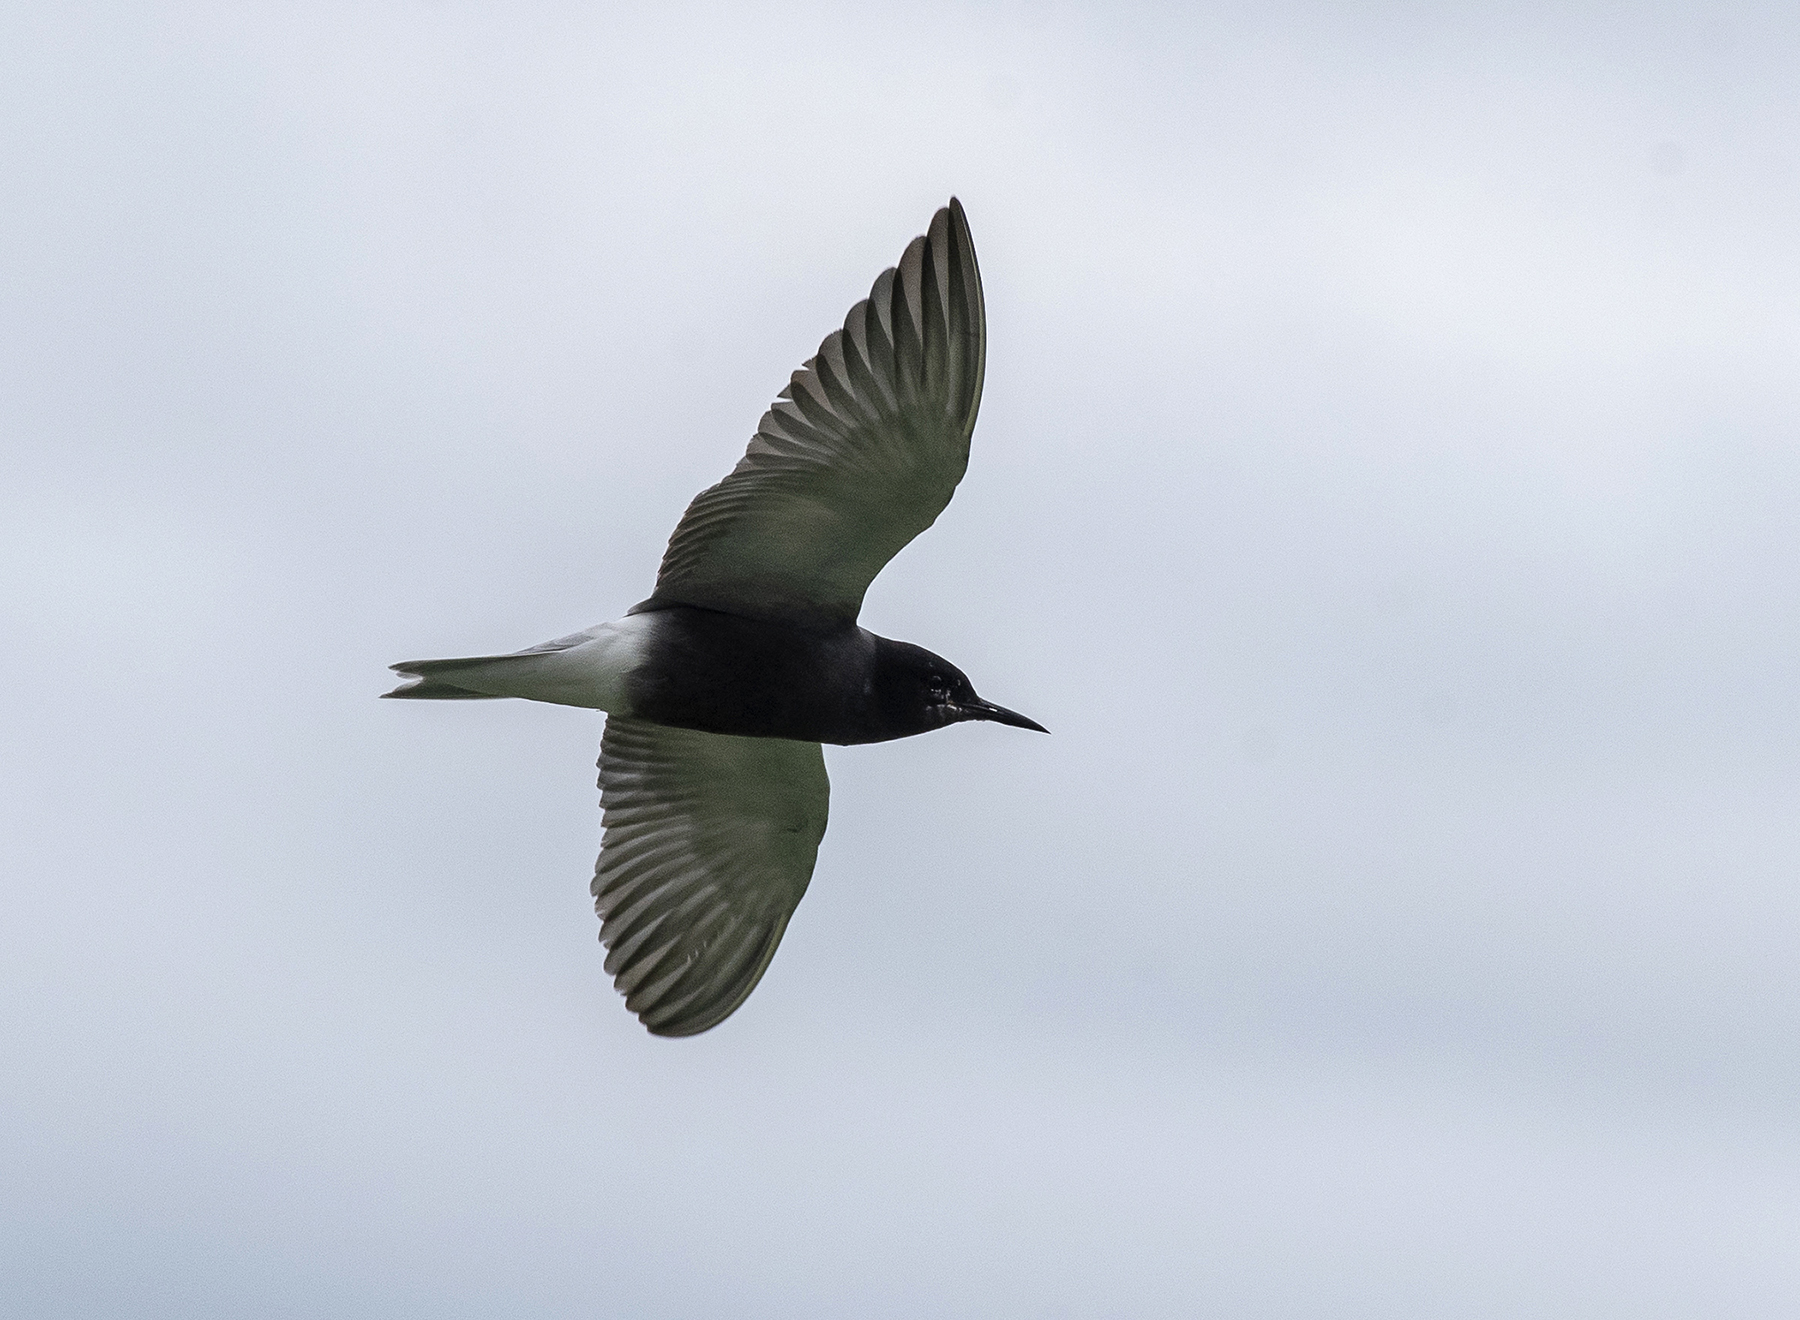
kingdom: Animalia
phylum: Chordata
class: Aves
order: Charadriiformes
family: Laridae
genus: Chlidonias
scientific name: Chlidonias niger
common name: Black tern
